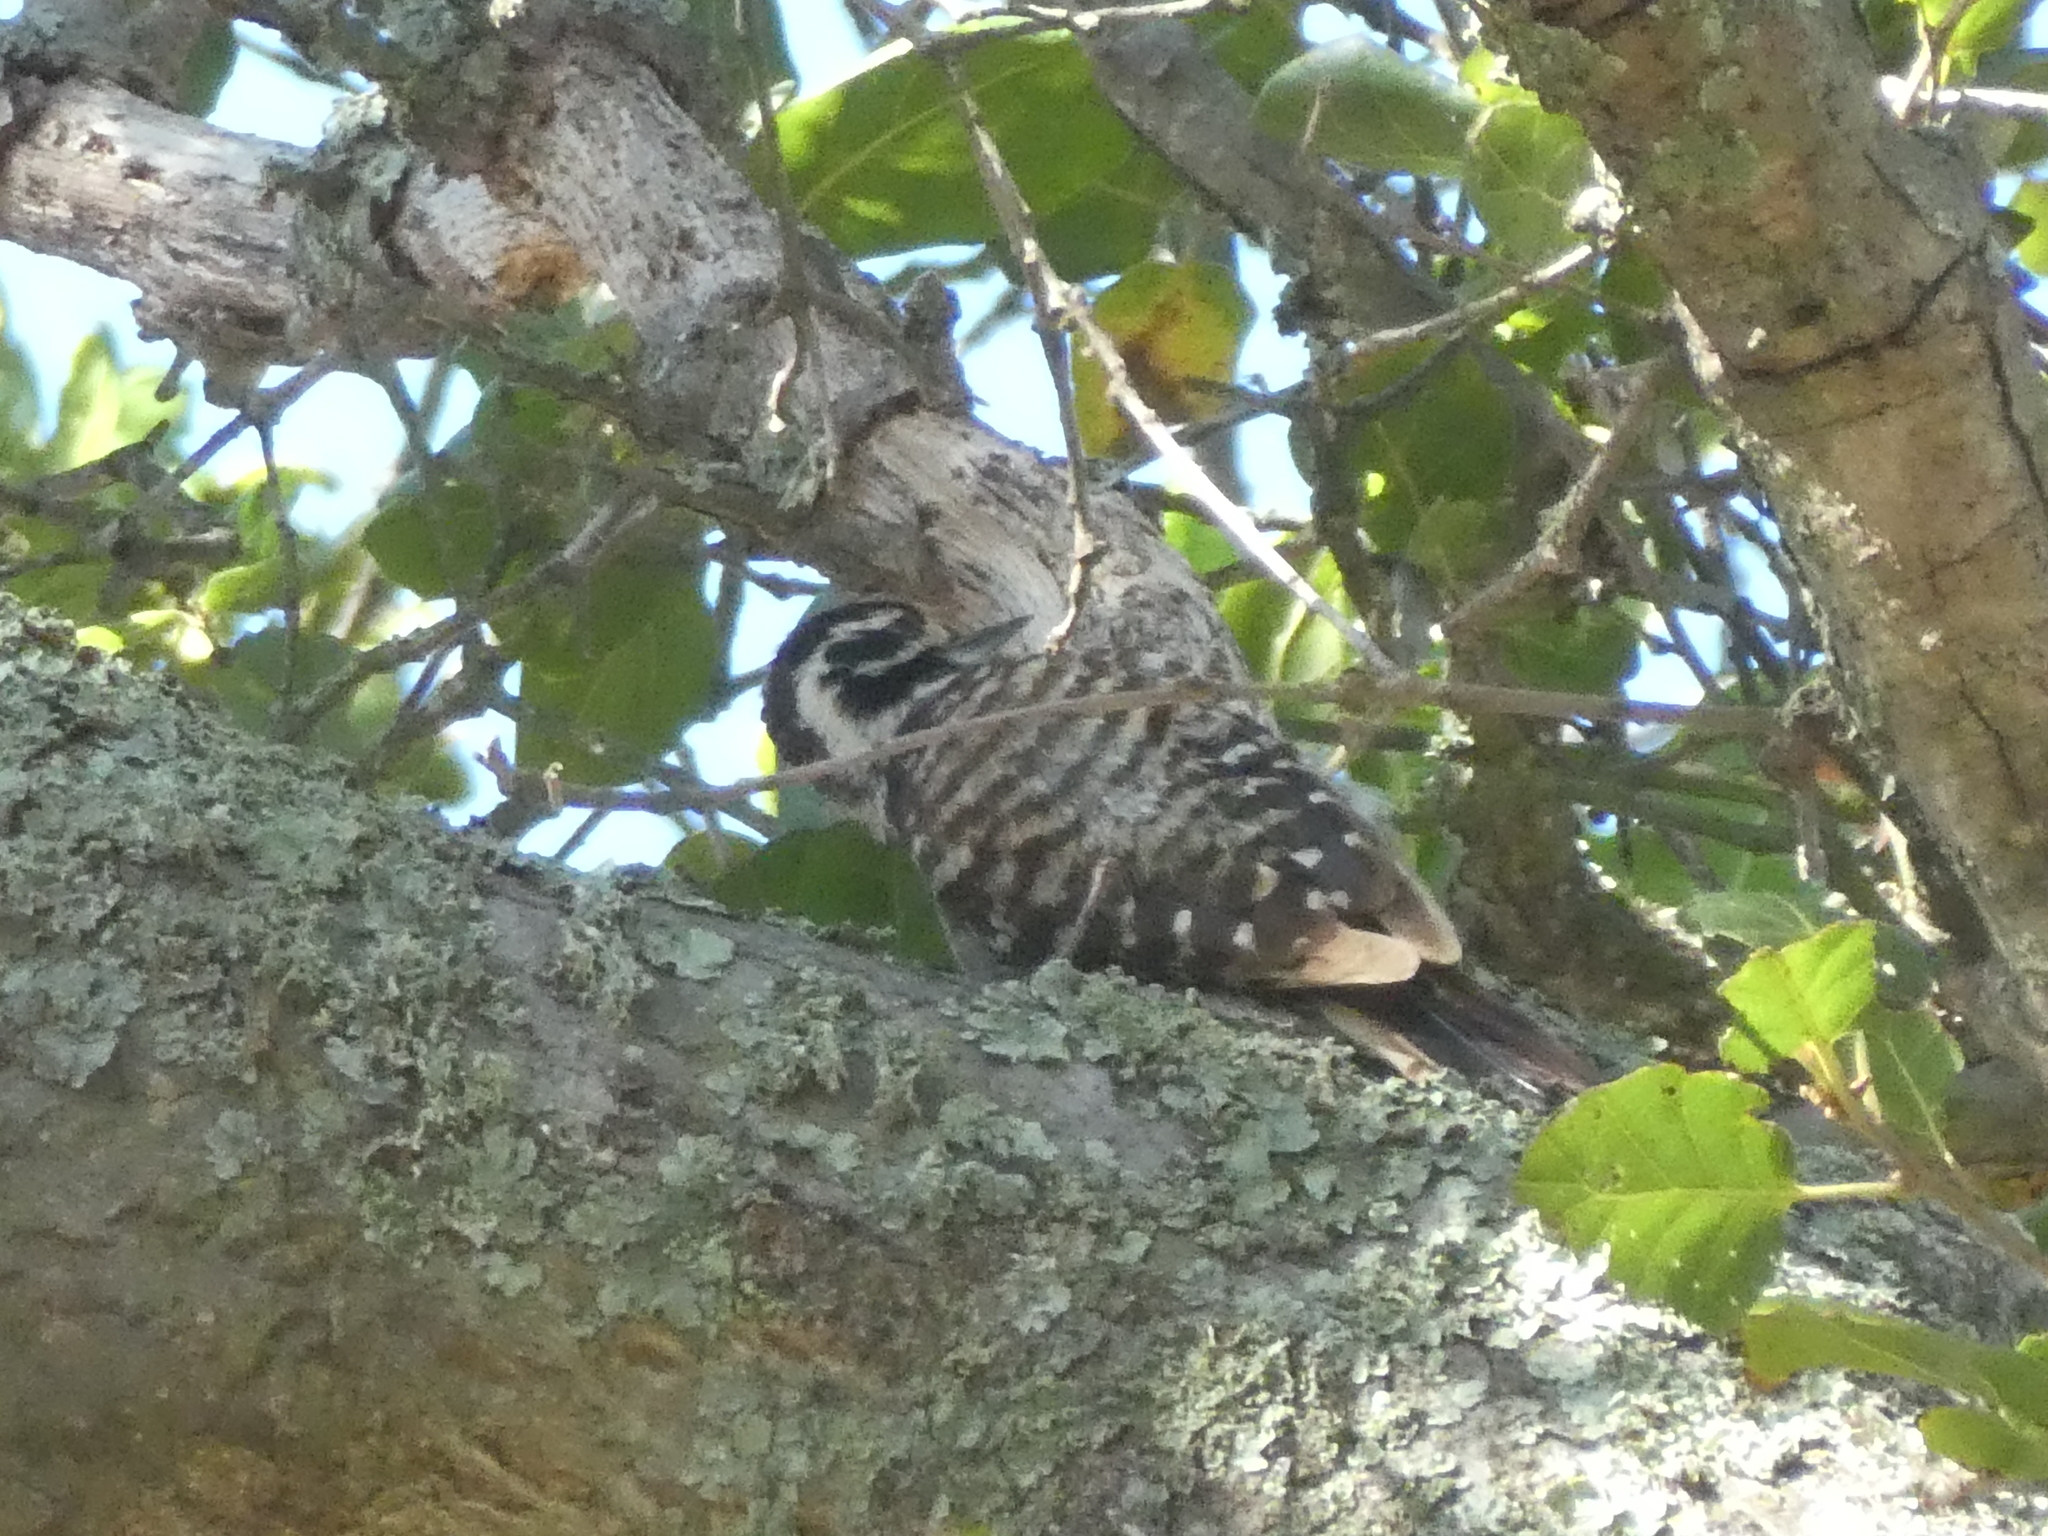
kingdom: Animalia
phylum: Chordata
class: Aves
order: Piciformes
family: Picidae
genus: Dryobates
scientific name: Dryobates nuttallii
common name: Nuttall's woodpecker
